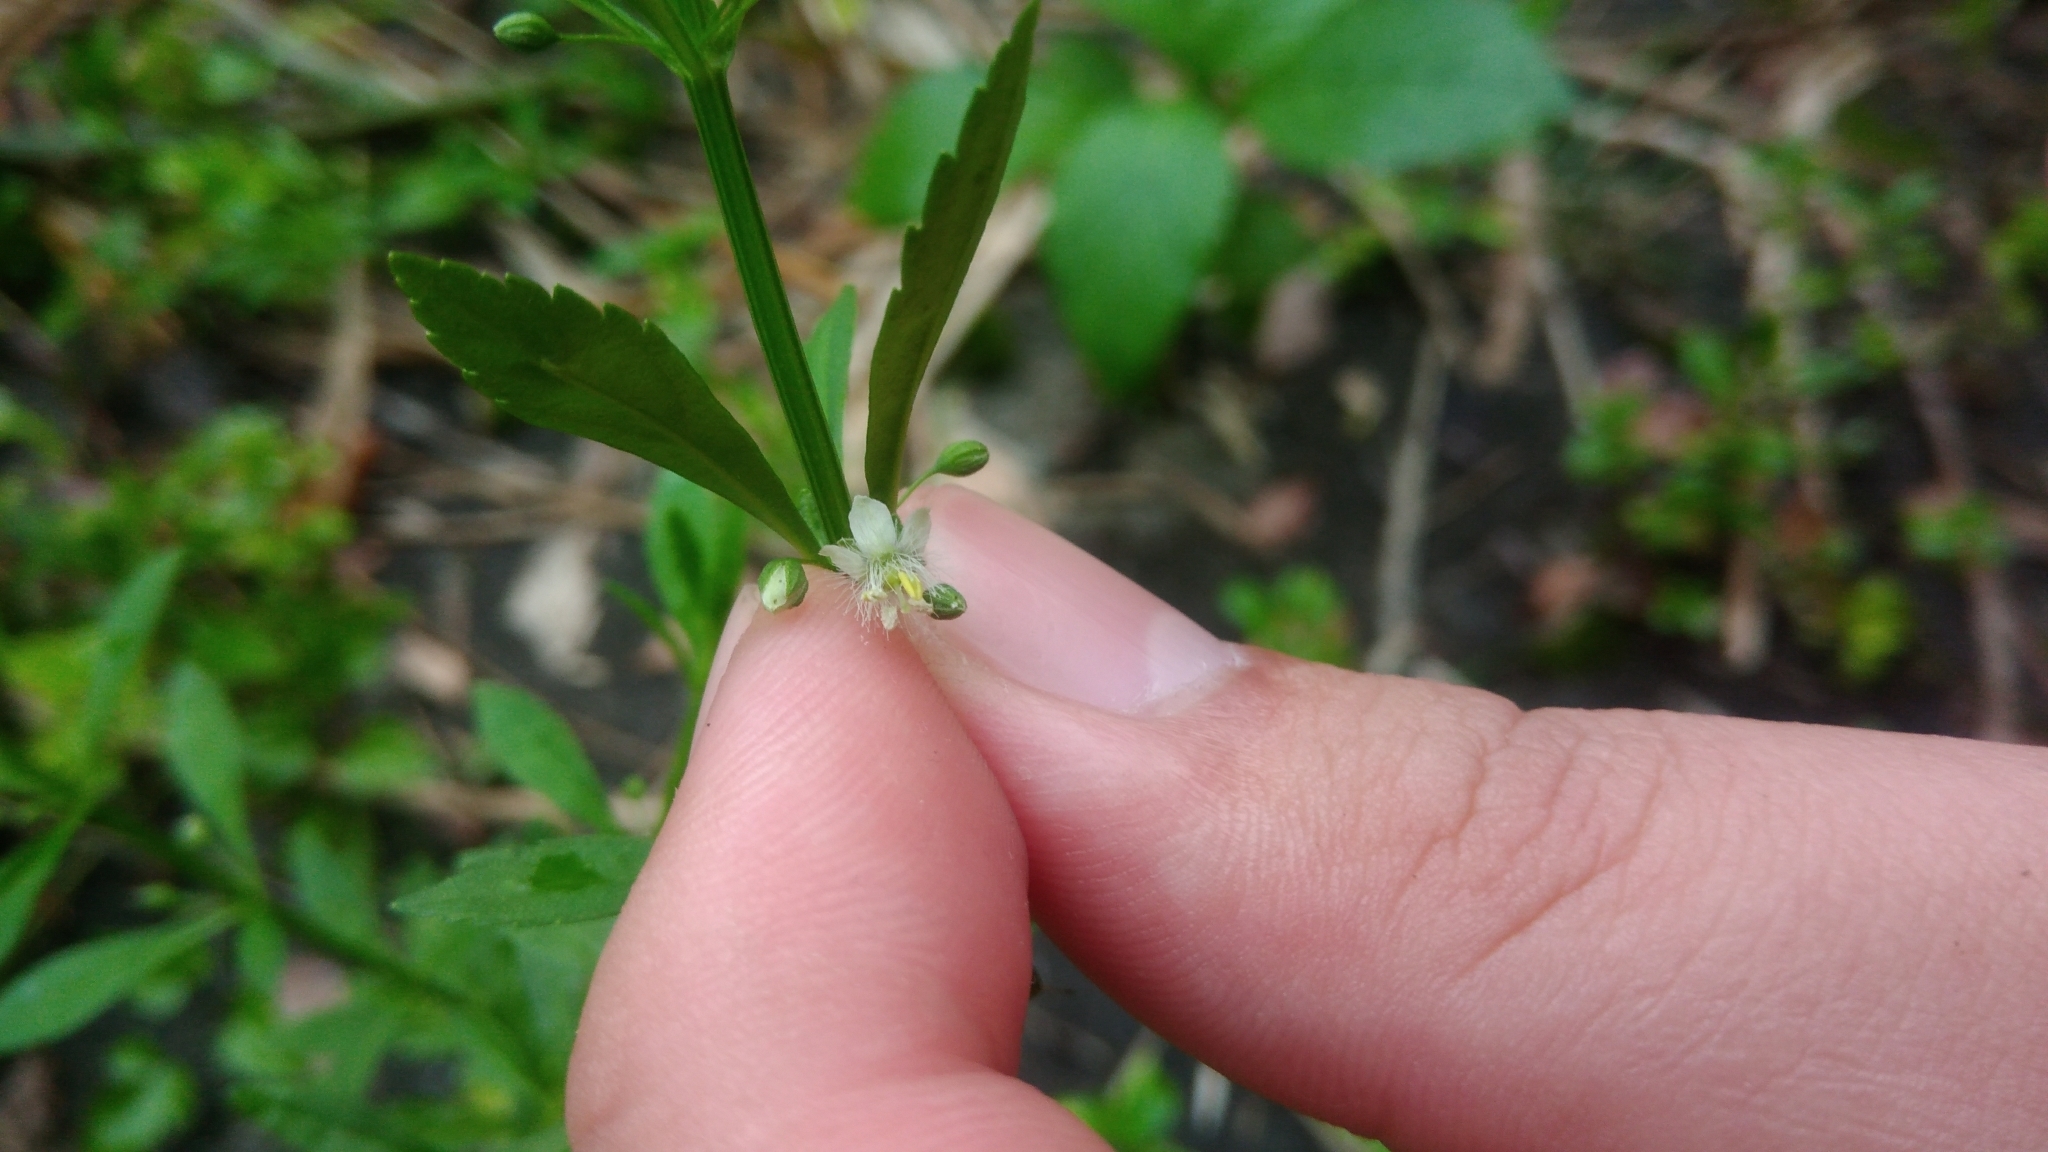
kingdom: Plantae
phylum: Tracheophyta
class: Magnoliopsida
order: Lamiales
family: Plantaginaceae
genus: Scoparia
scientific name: Scoparia dulcis
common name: Scoparia-weed
